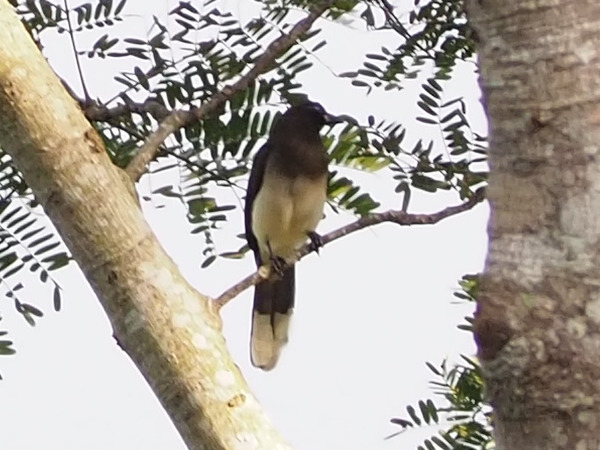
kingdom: Animalia
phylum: Chordata
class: Aves
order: Passeriformes
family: Corvidae
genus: Psilorhinus
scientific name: Psilorhinus morio
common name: Brown jay
